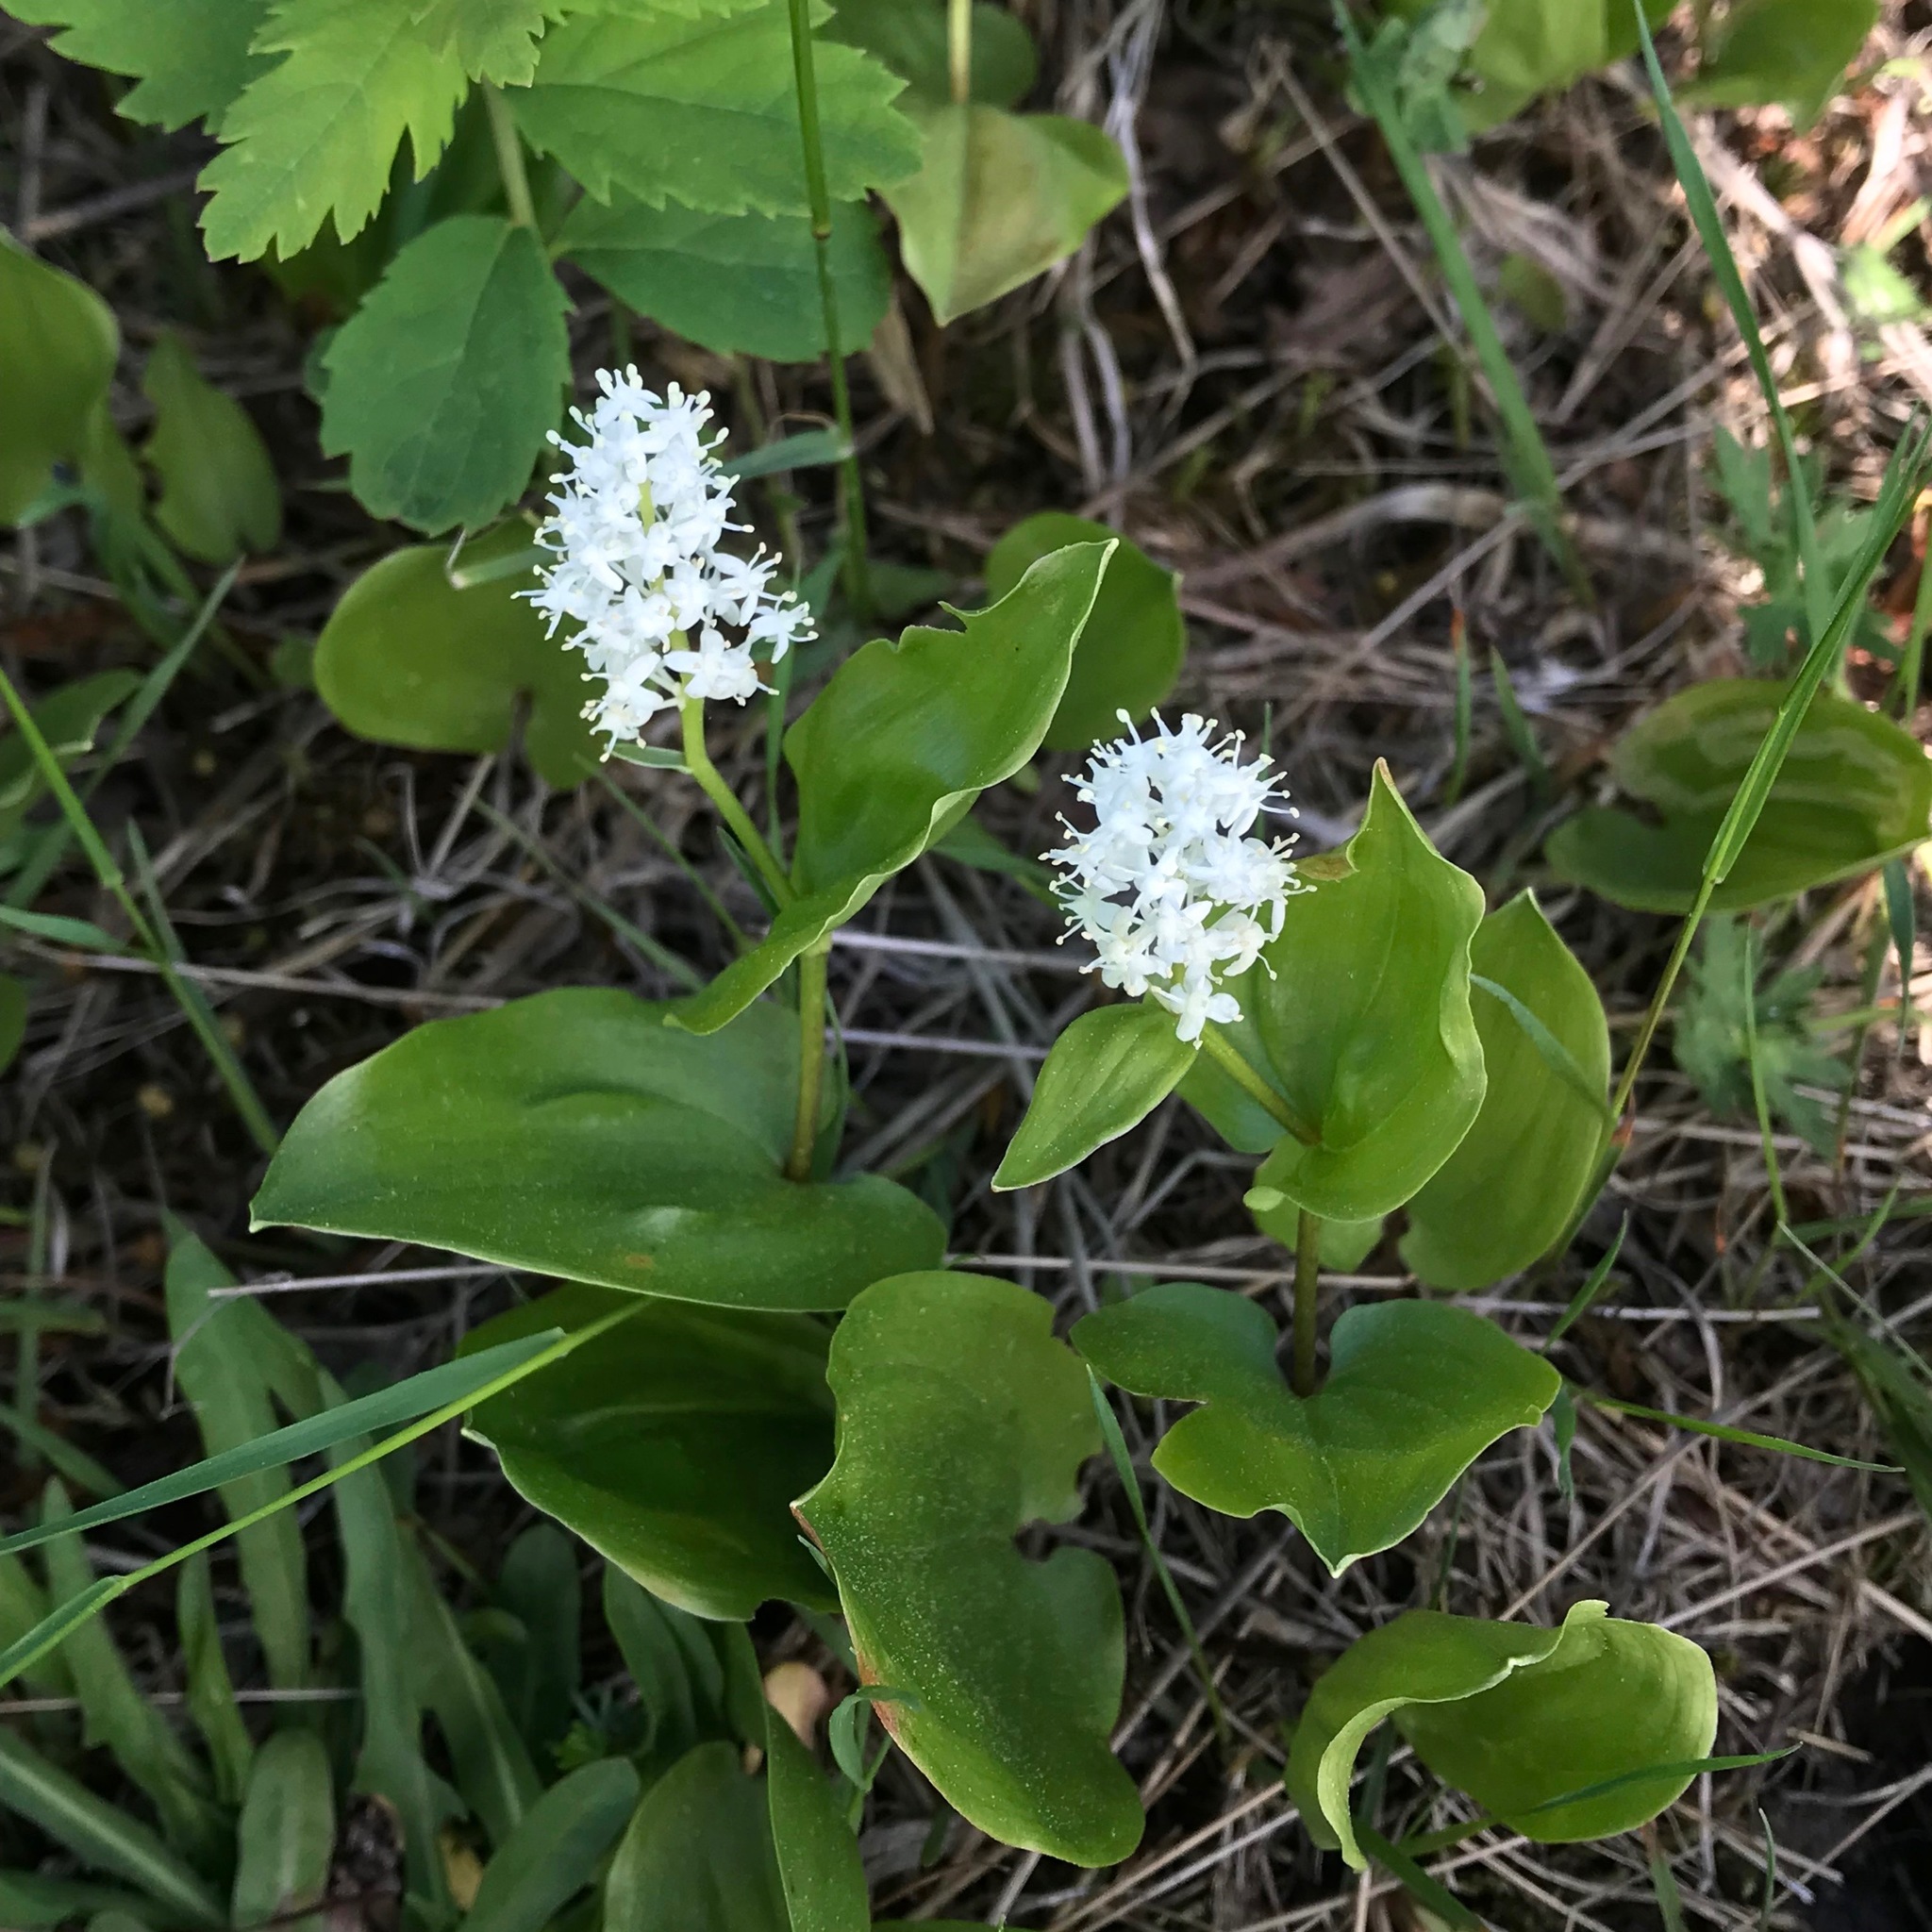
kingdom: Plantae
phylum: Tracheophyta
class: Liliopsida
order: Asparagales
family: Asparagaceae
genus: Maianthemum
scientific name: Maianthemum canadense
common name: False lily-of-the-valley
